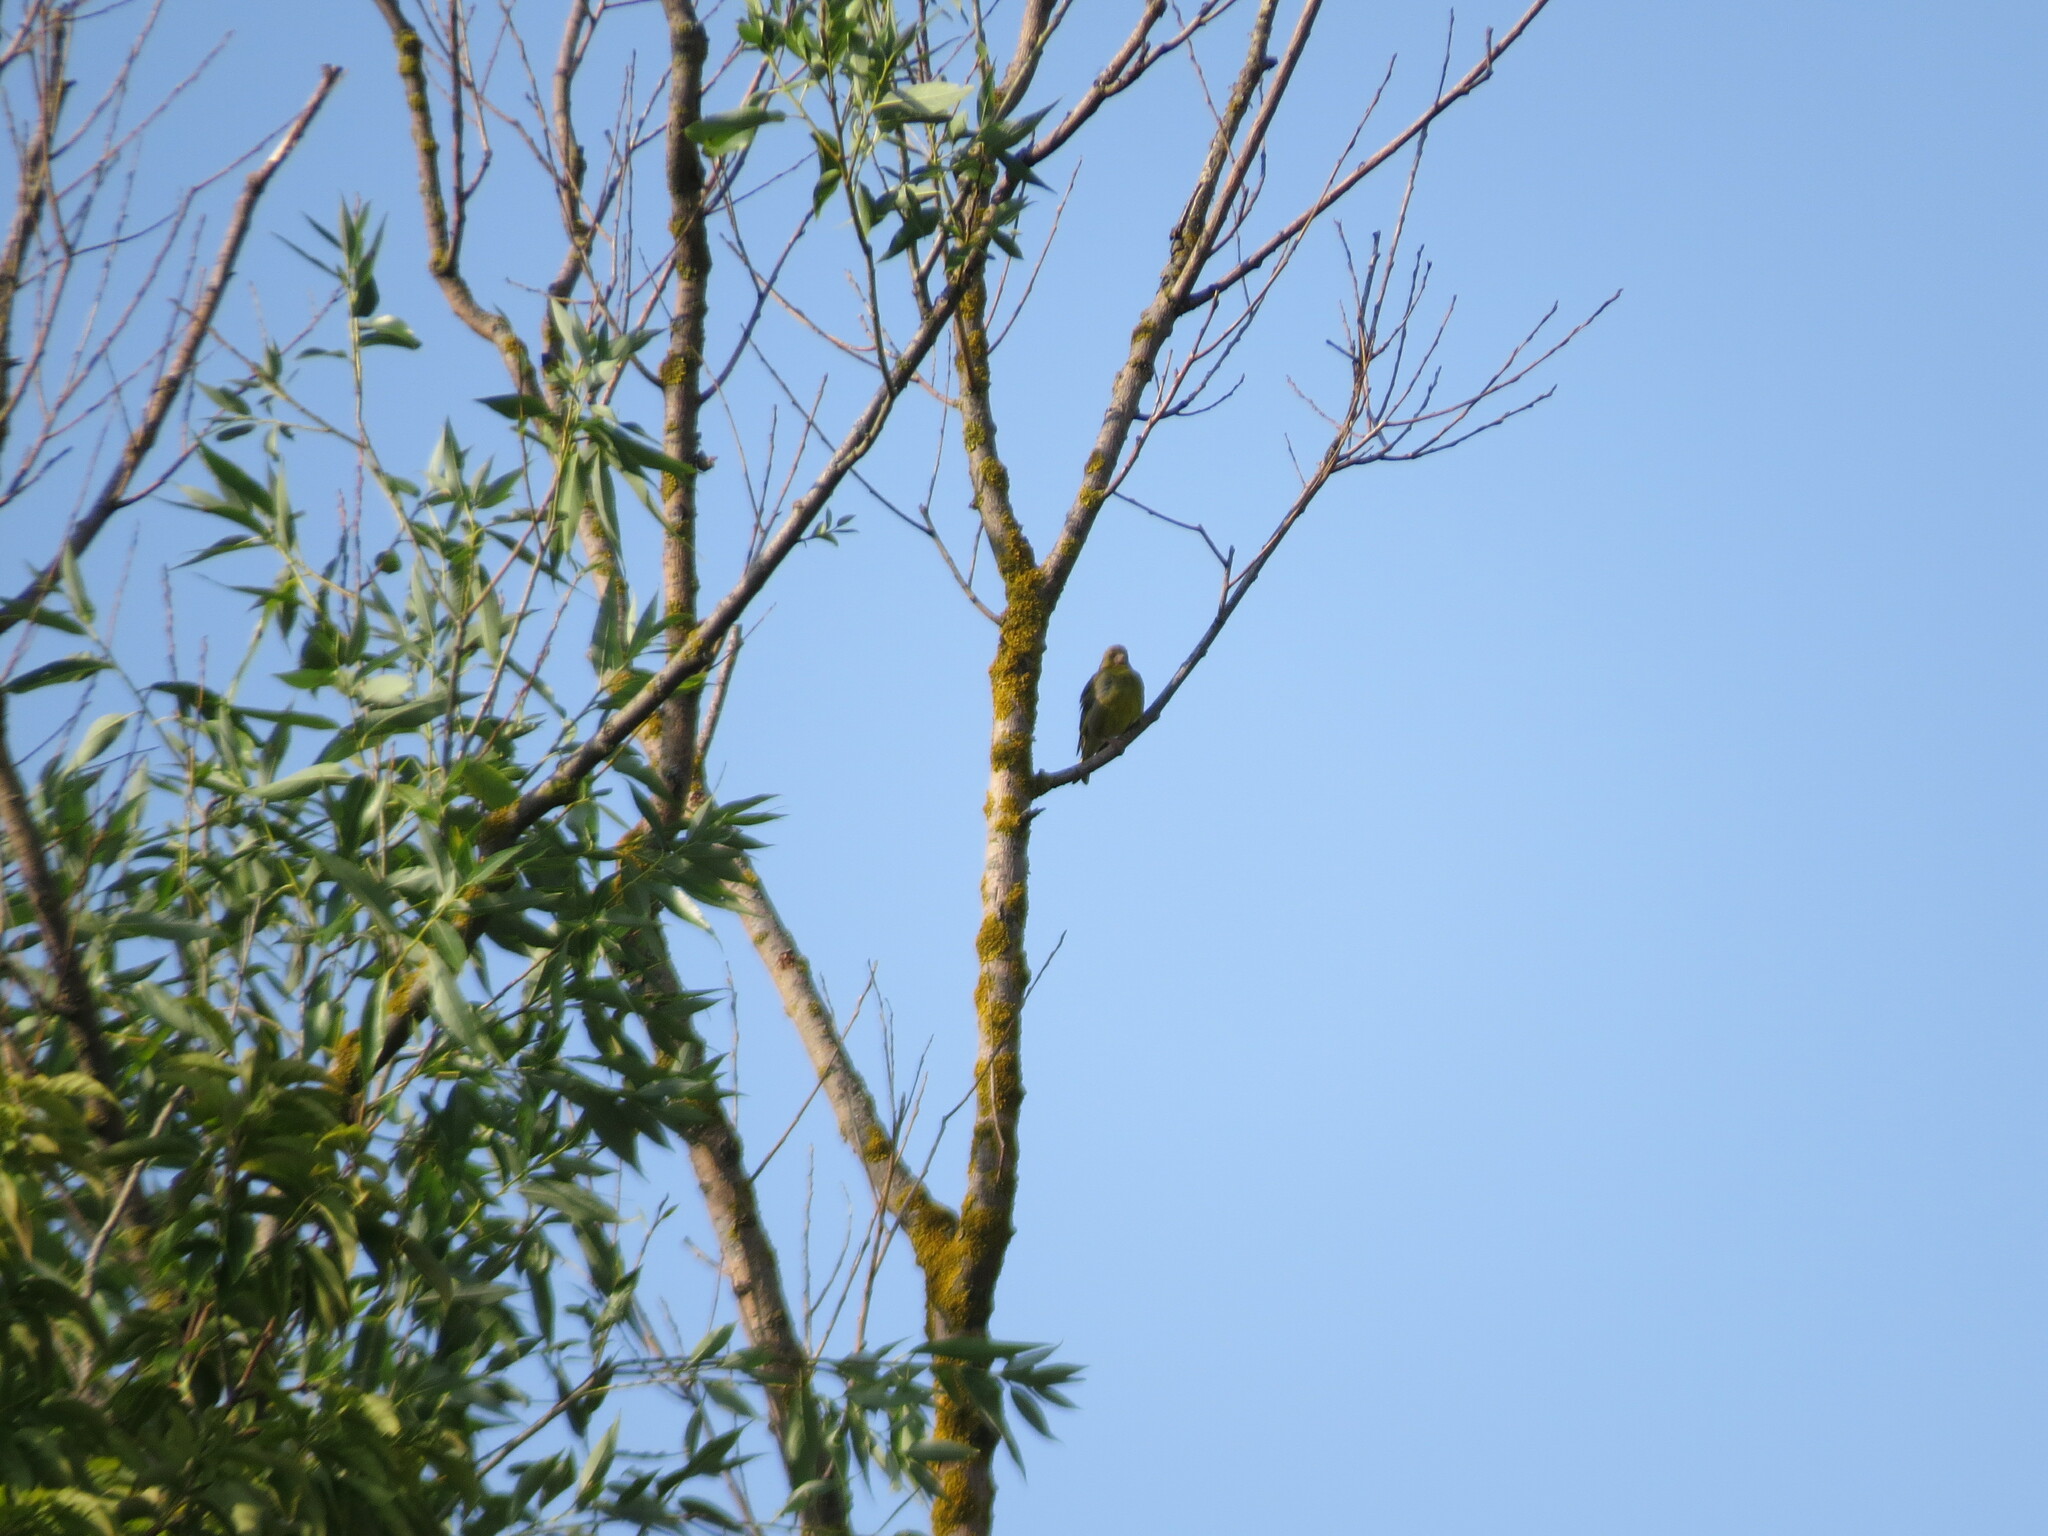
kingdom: Plantae
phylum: Tracheophyta
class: Liliopsida
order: Poales
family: Poaceae
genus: Chloris
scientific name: Chloris chloris
